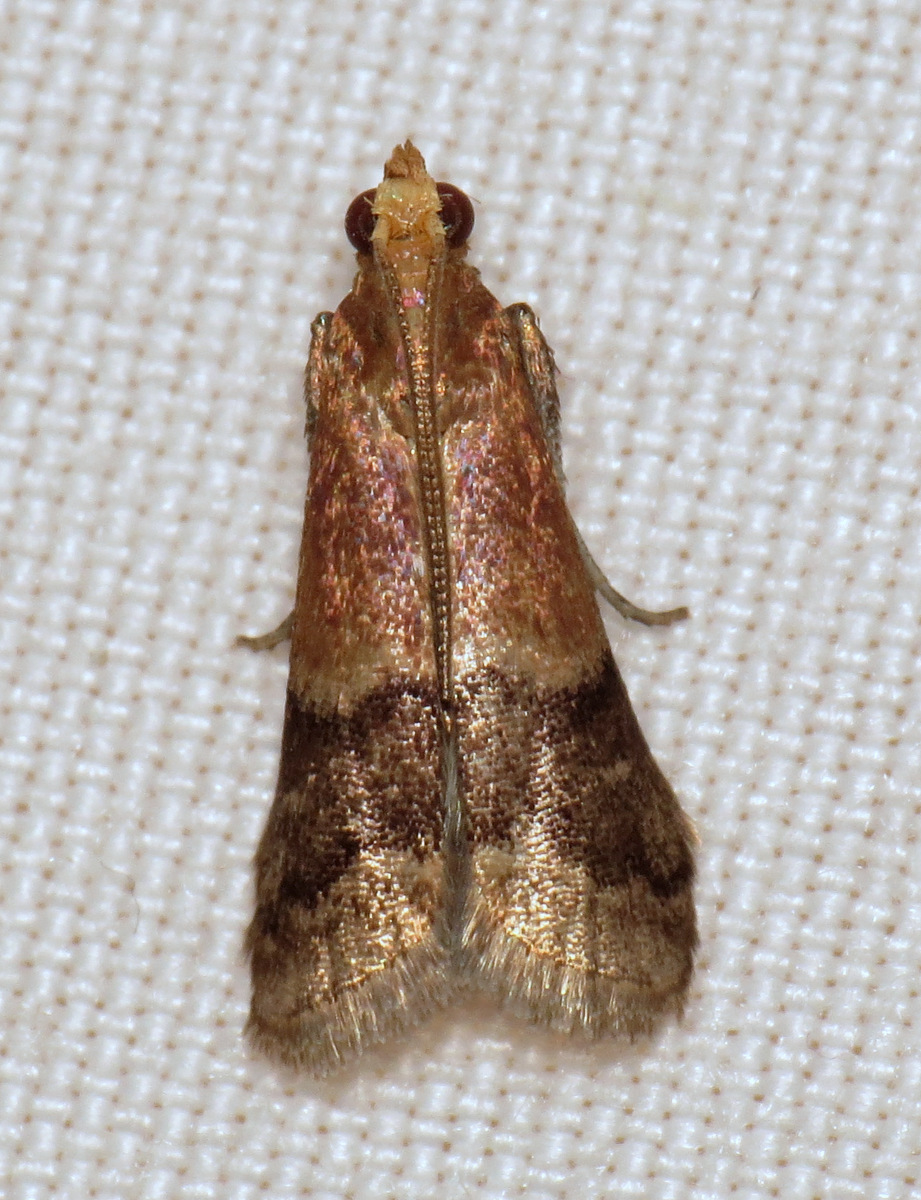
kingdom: Animalia
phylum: Arthropoda
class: Insecta
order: Lepidoptera
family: Pyralidae
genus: Eulogia
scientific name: Eulogia ochrifrontella
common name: Broad-banded eulogia moth
